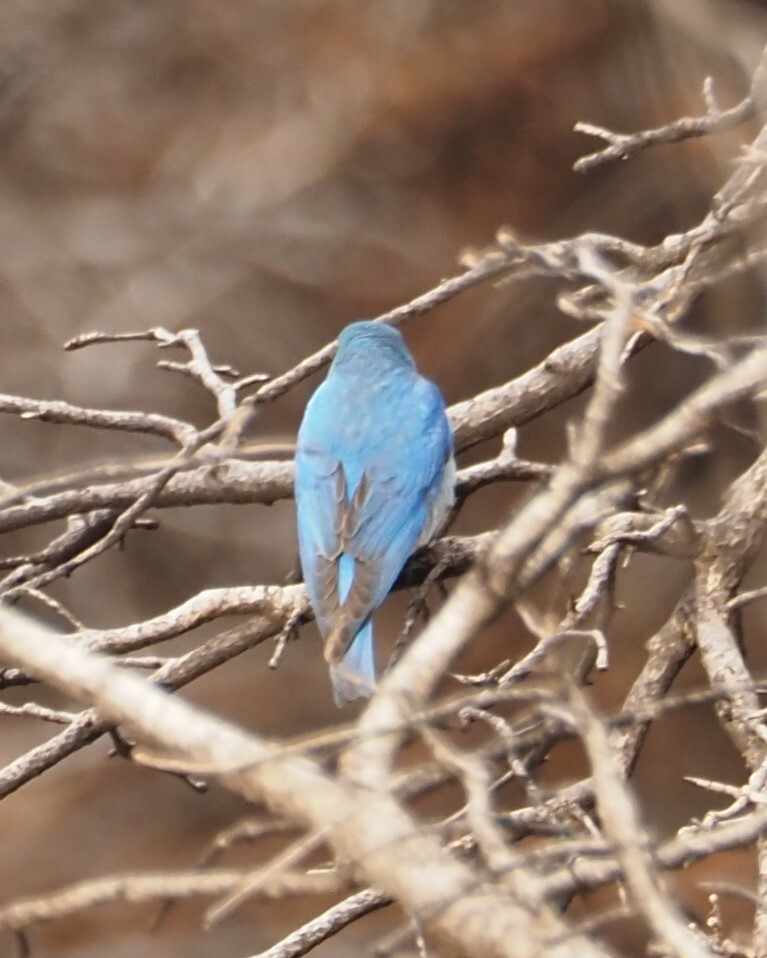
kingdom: Animalia
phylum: Chordata
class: Aves
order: Passeriformes
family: Turdidae
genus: Sialia
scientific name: Sialia currucoides
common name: Mountain bluebird
